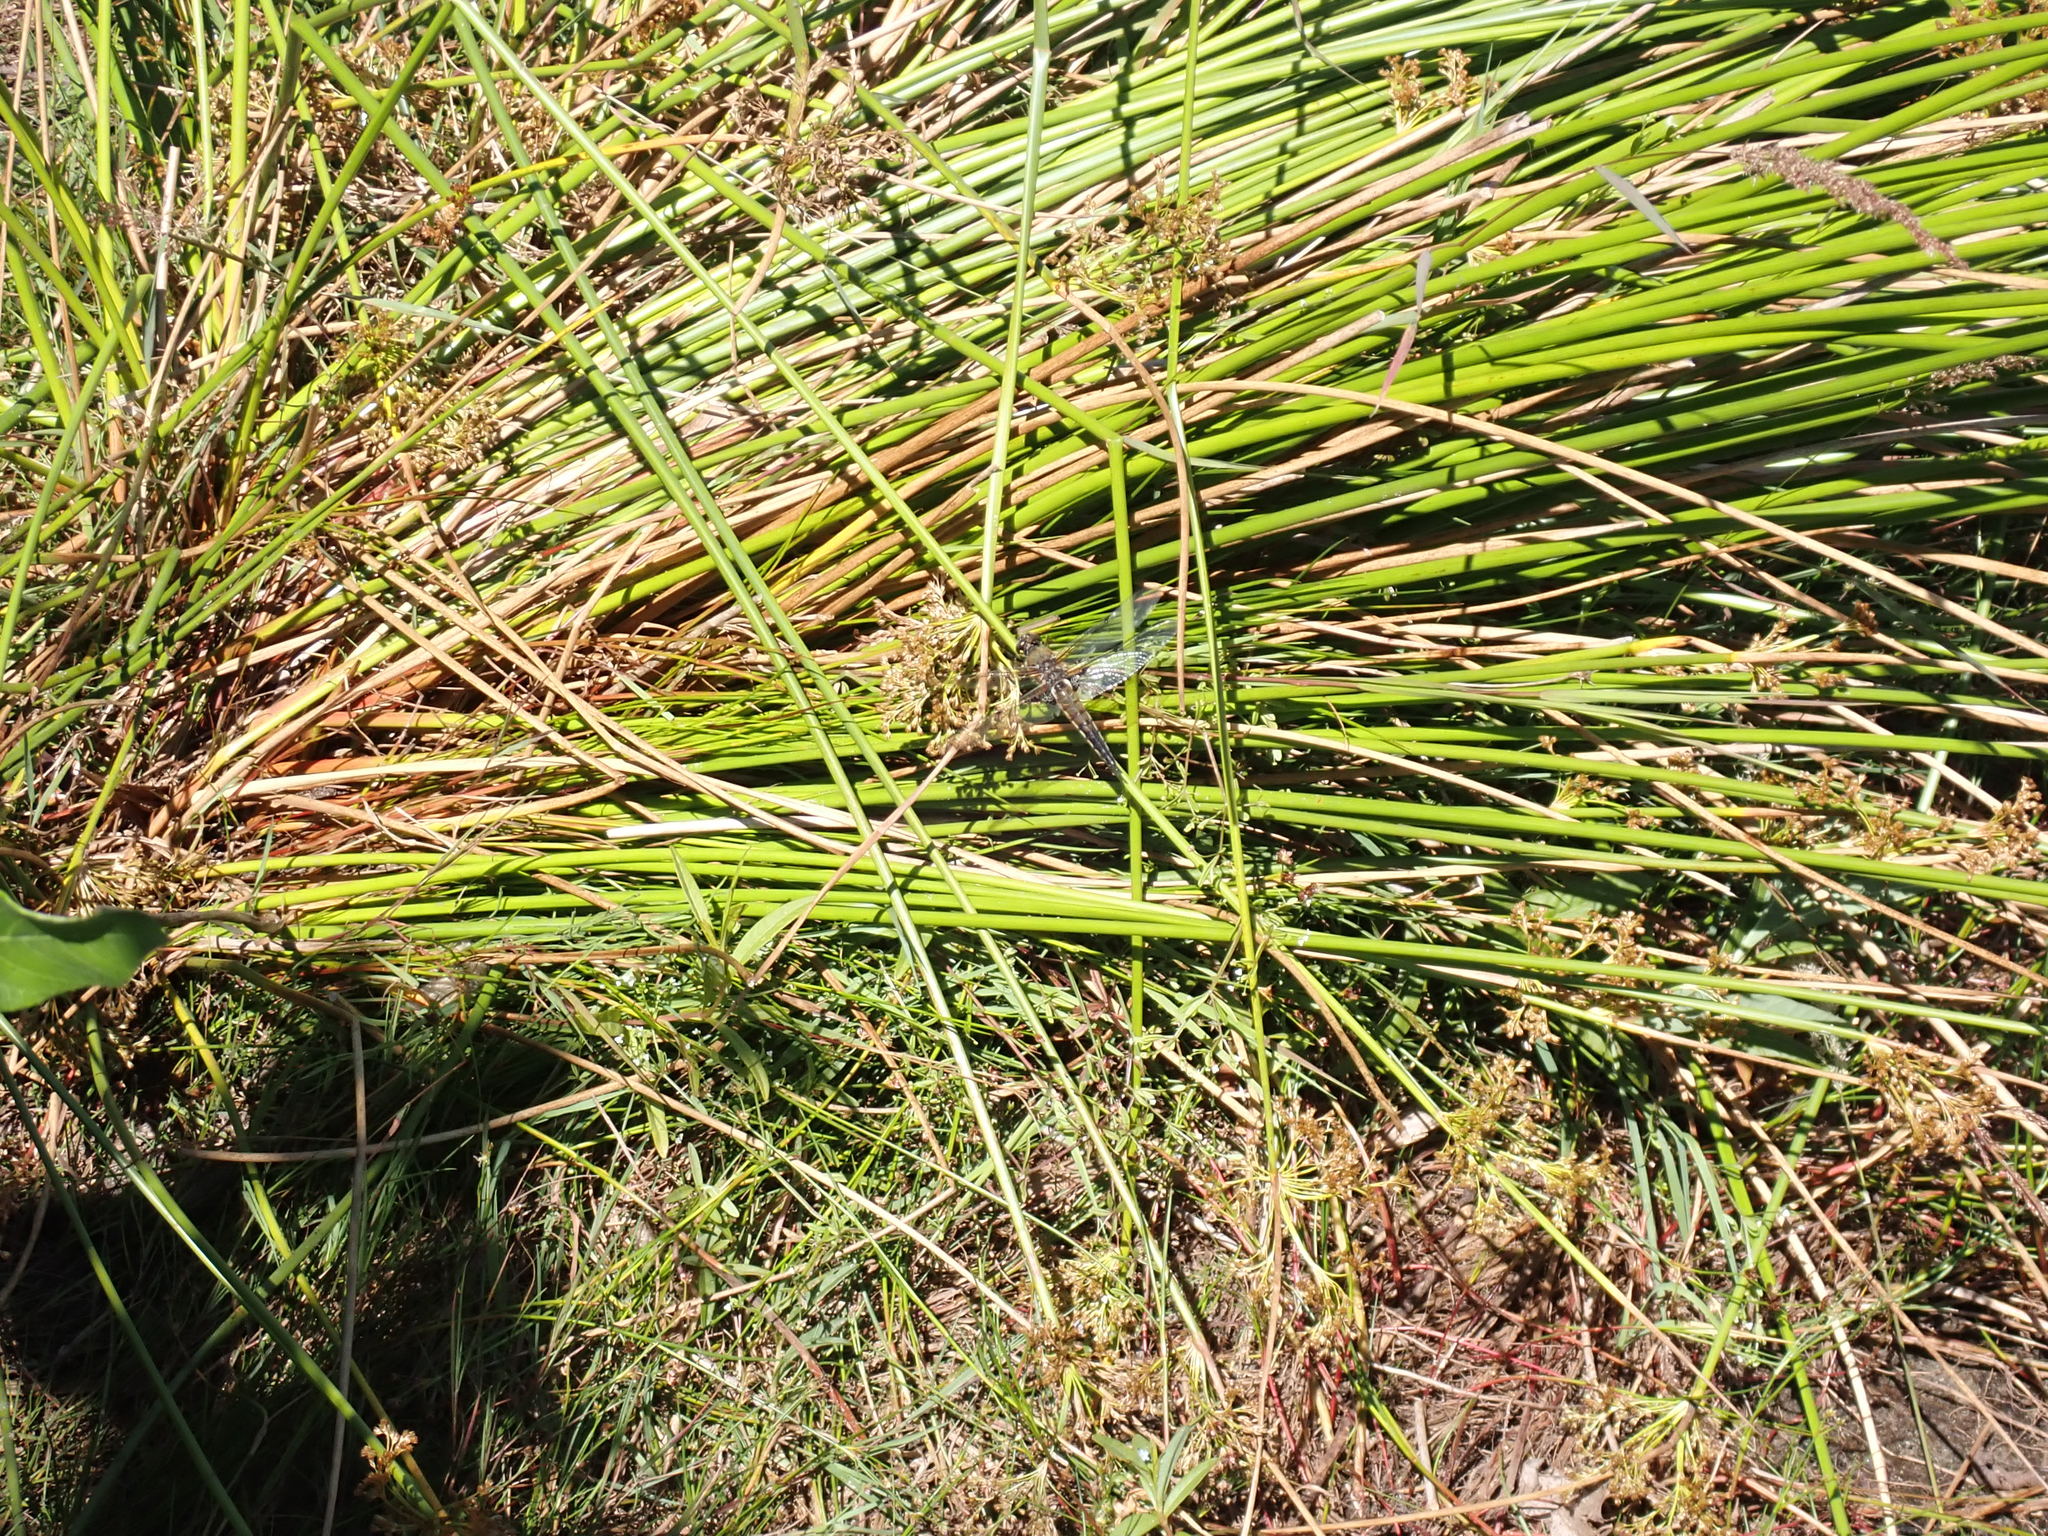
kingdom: Animalia
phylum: Arthropoda
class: Insecta
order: Odonata
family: Libellulidae
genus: Libellula
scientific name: Libellula quadrimaculata
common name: Four-spotted chaser
